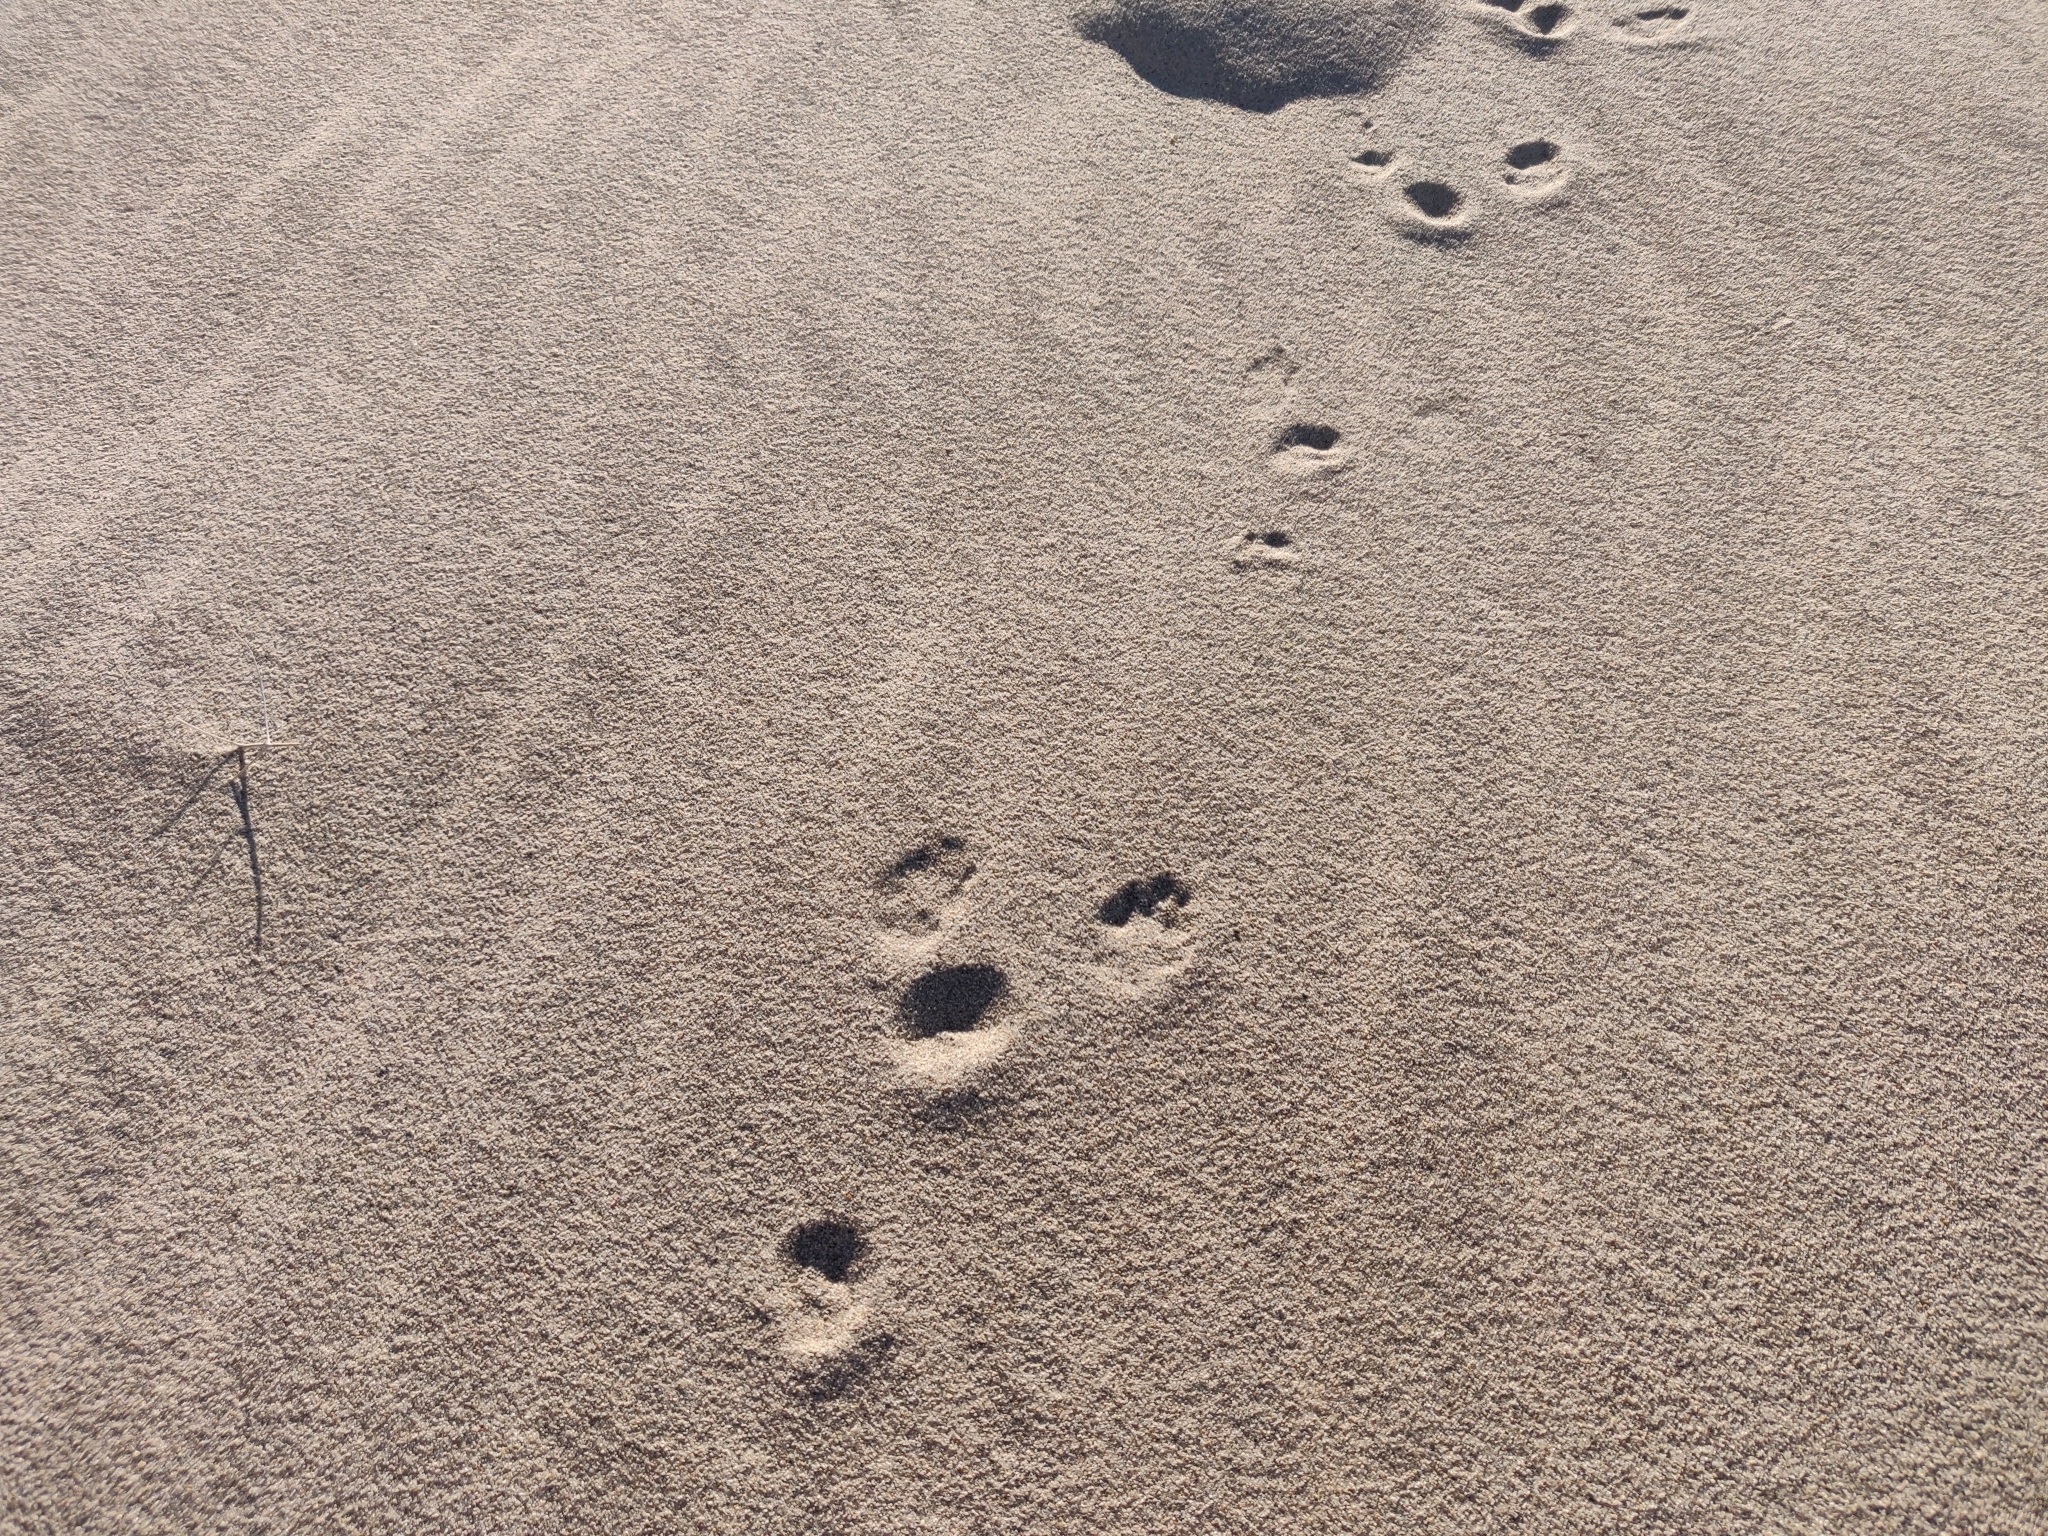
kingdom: Animalia
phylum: Chordata
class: Mammalia
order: Lagomorpha
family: Leporidae
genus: Sylvilagus
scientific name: Sylvilagus audubonii
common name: Desert cottontail
